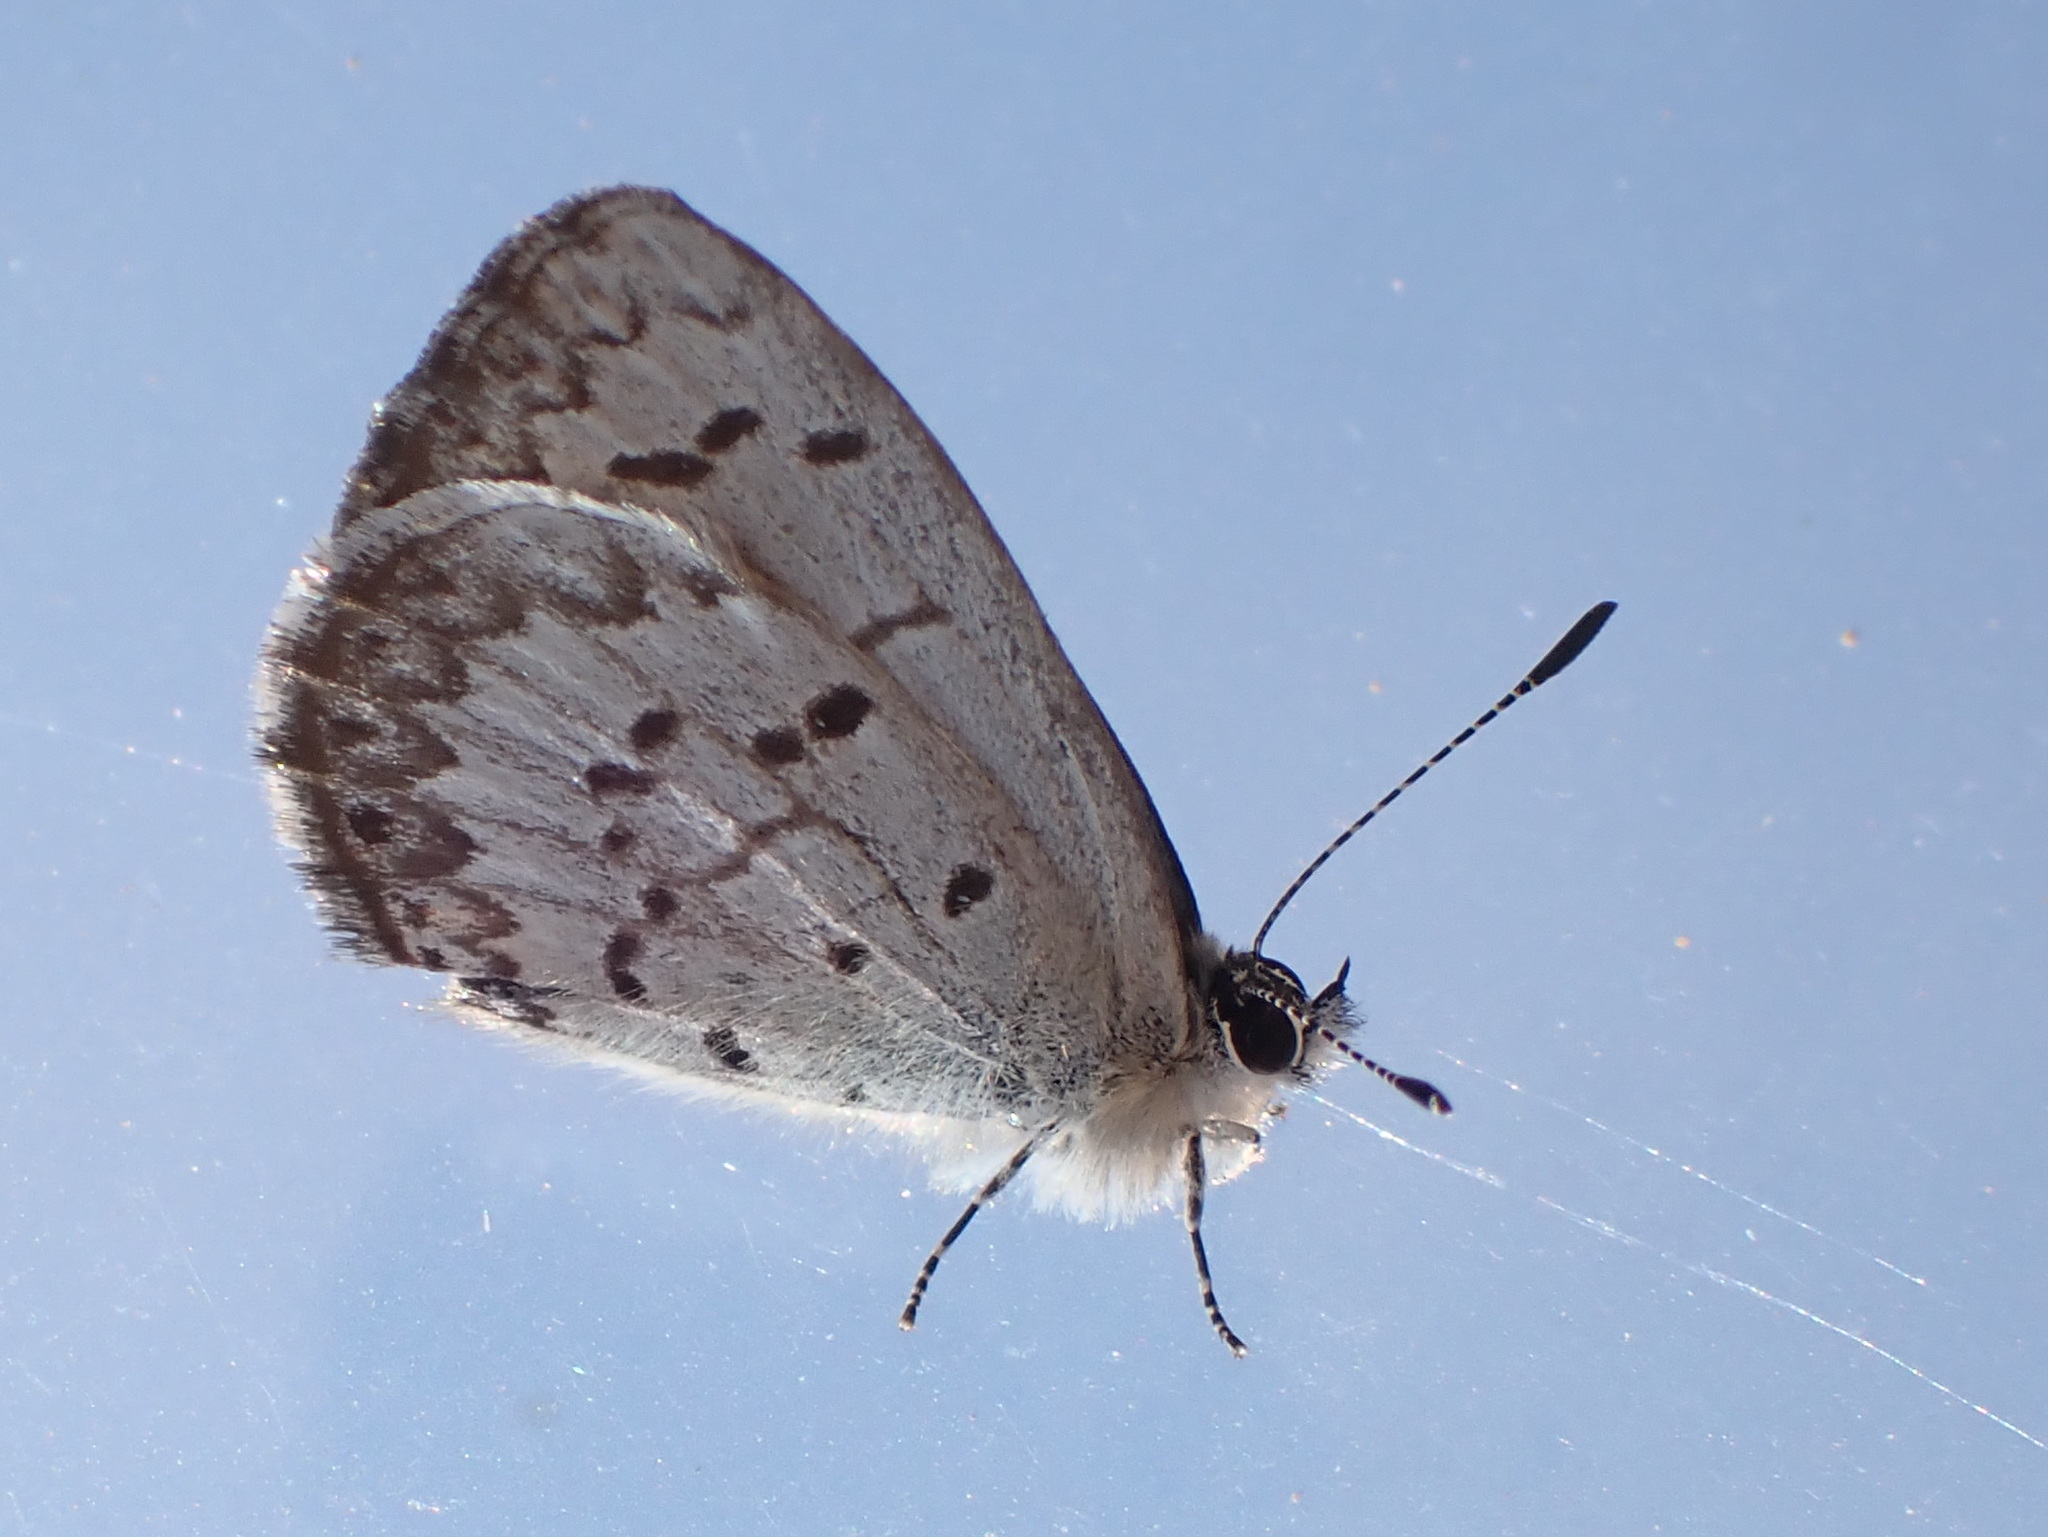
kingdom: Animalia
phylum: Arthropoda
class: Insecta
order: Lepidoptera
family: Lycaenidae
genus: Celastrina
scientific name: Celastrina lucia
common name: Lucia azure
